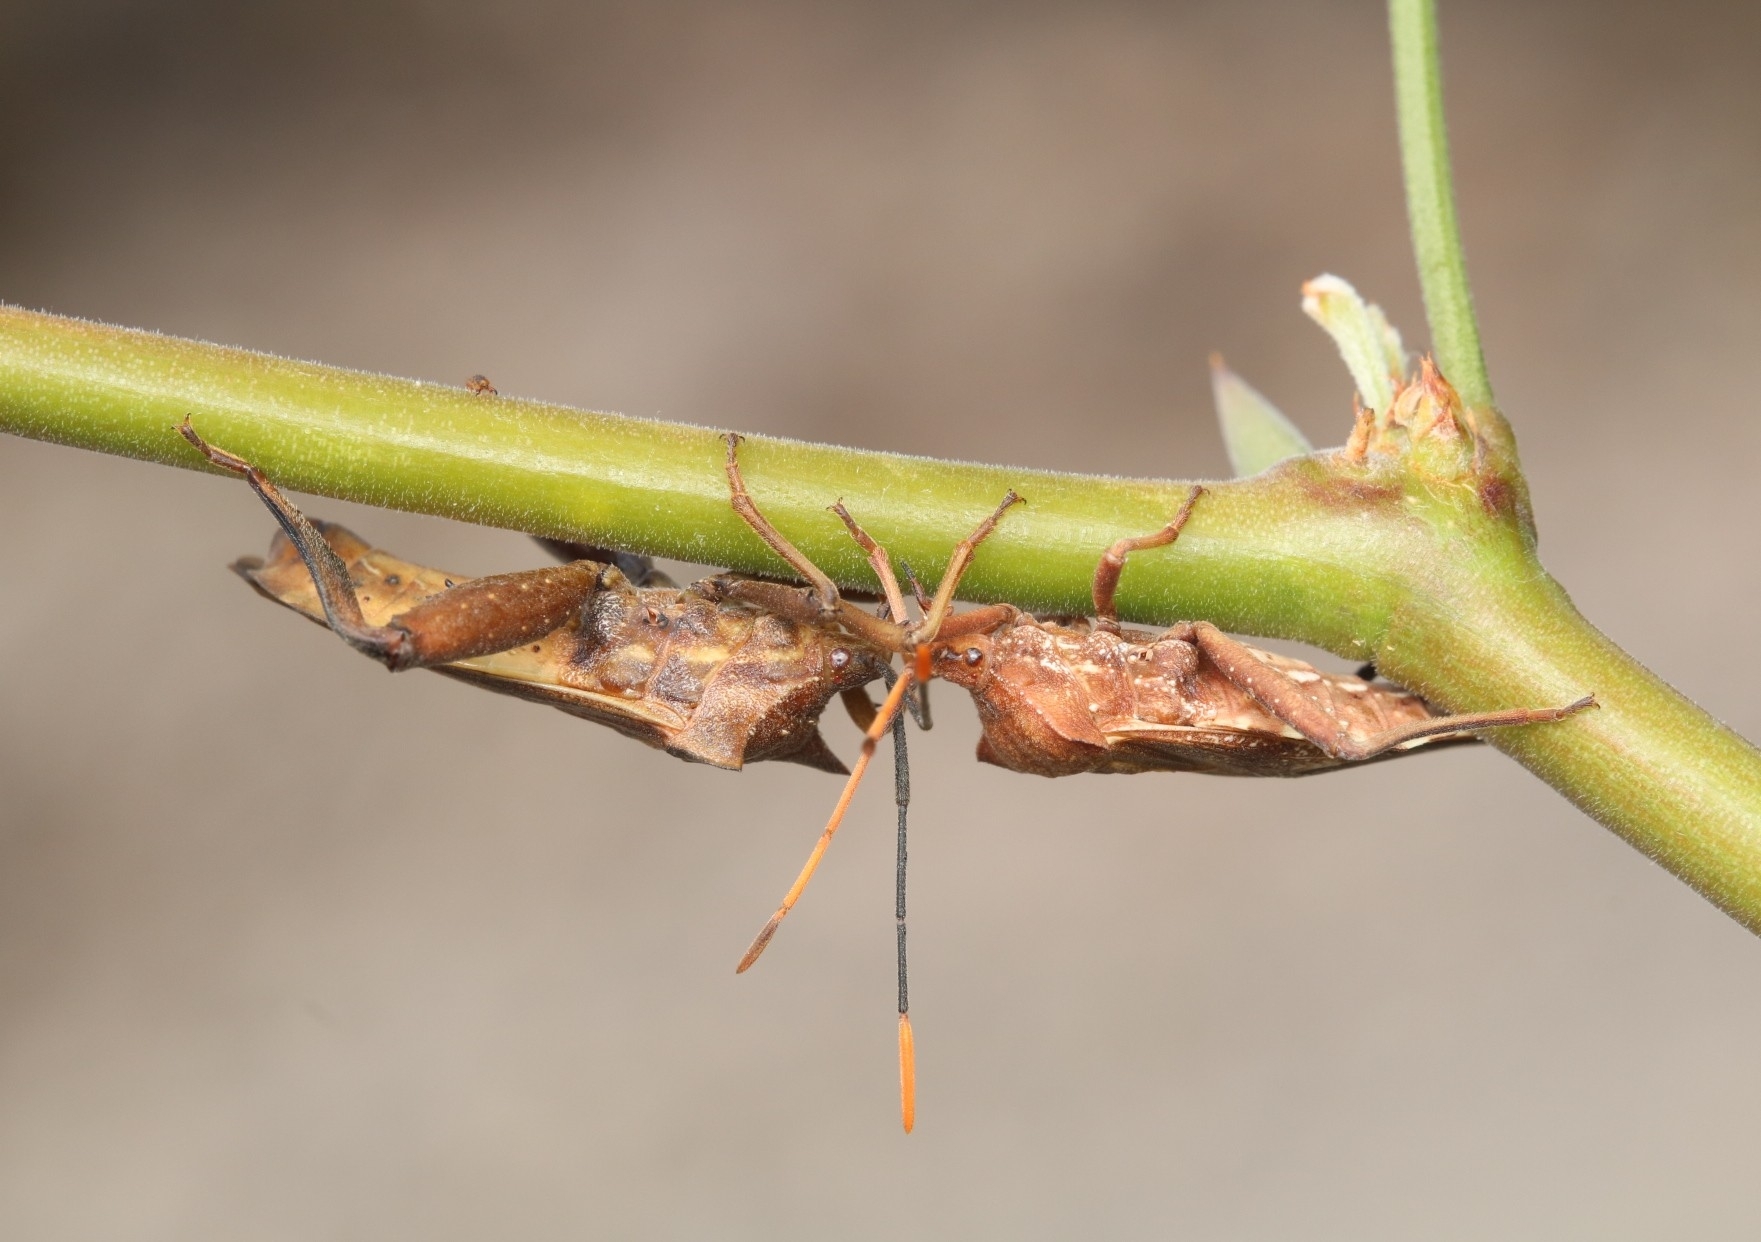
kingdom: Animalia
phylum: Arthropoda
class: Insecta
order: Hemiptera
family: Coreidae
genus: Mozena
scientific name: Mozena lunata
